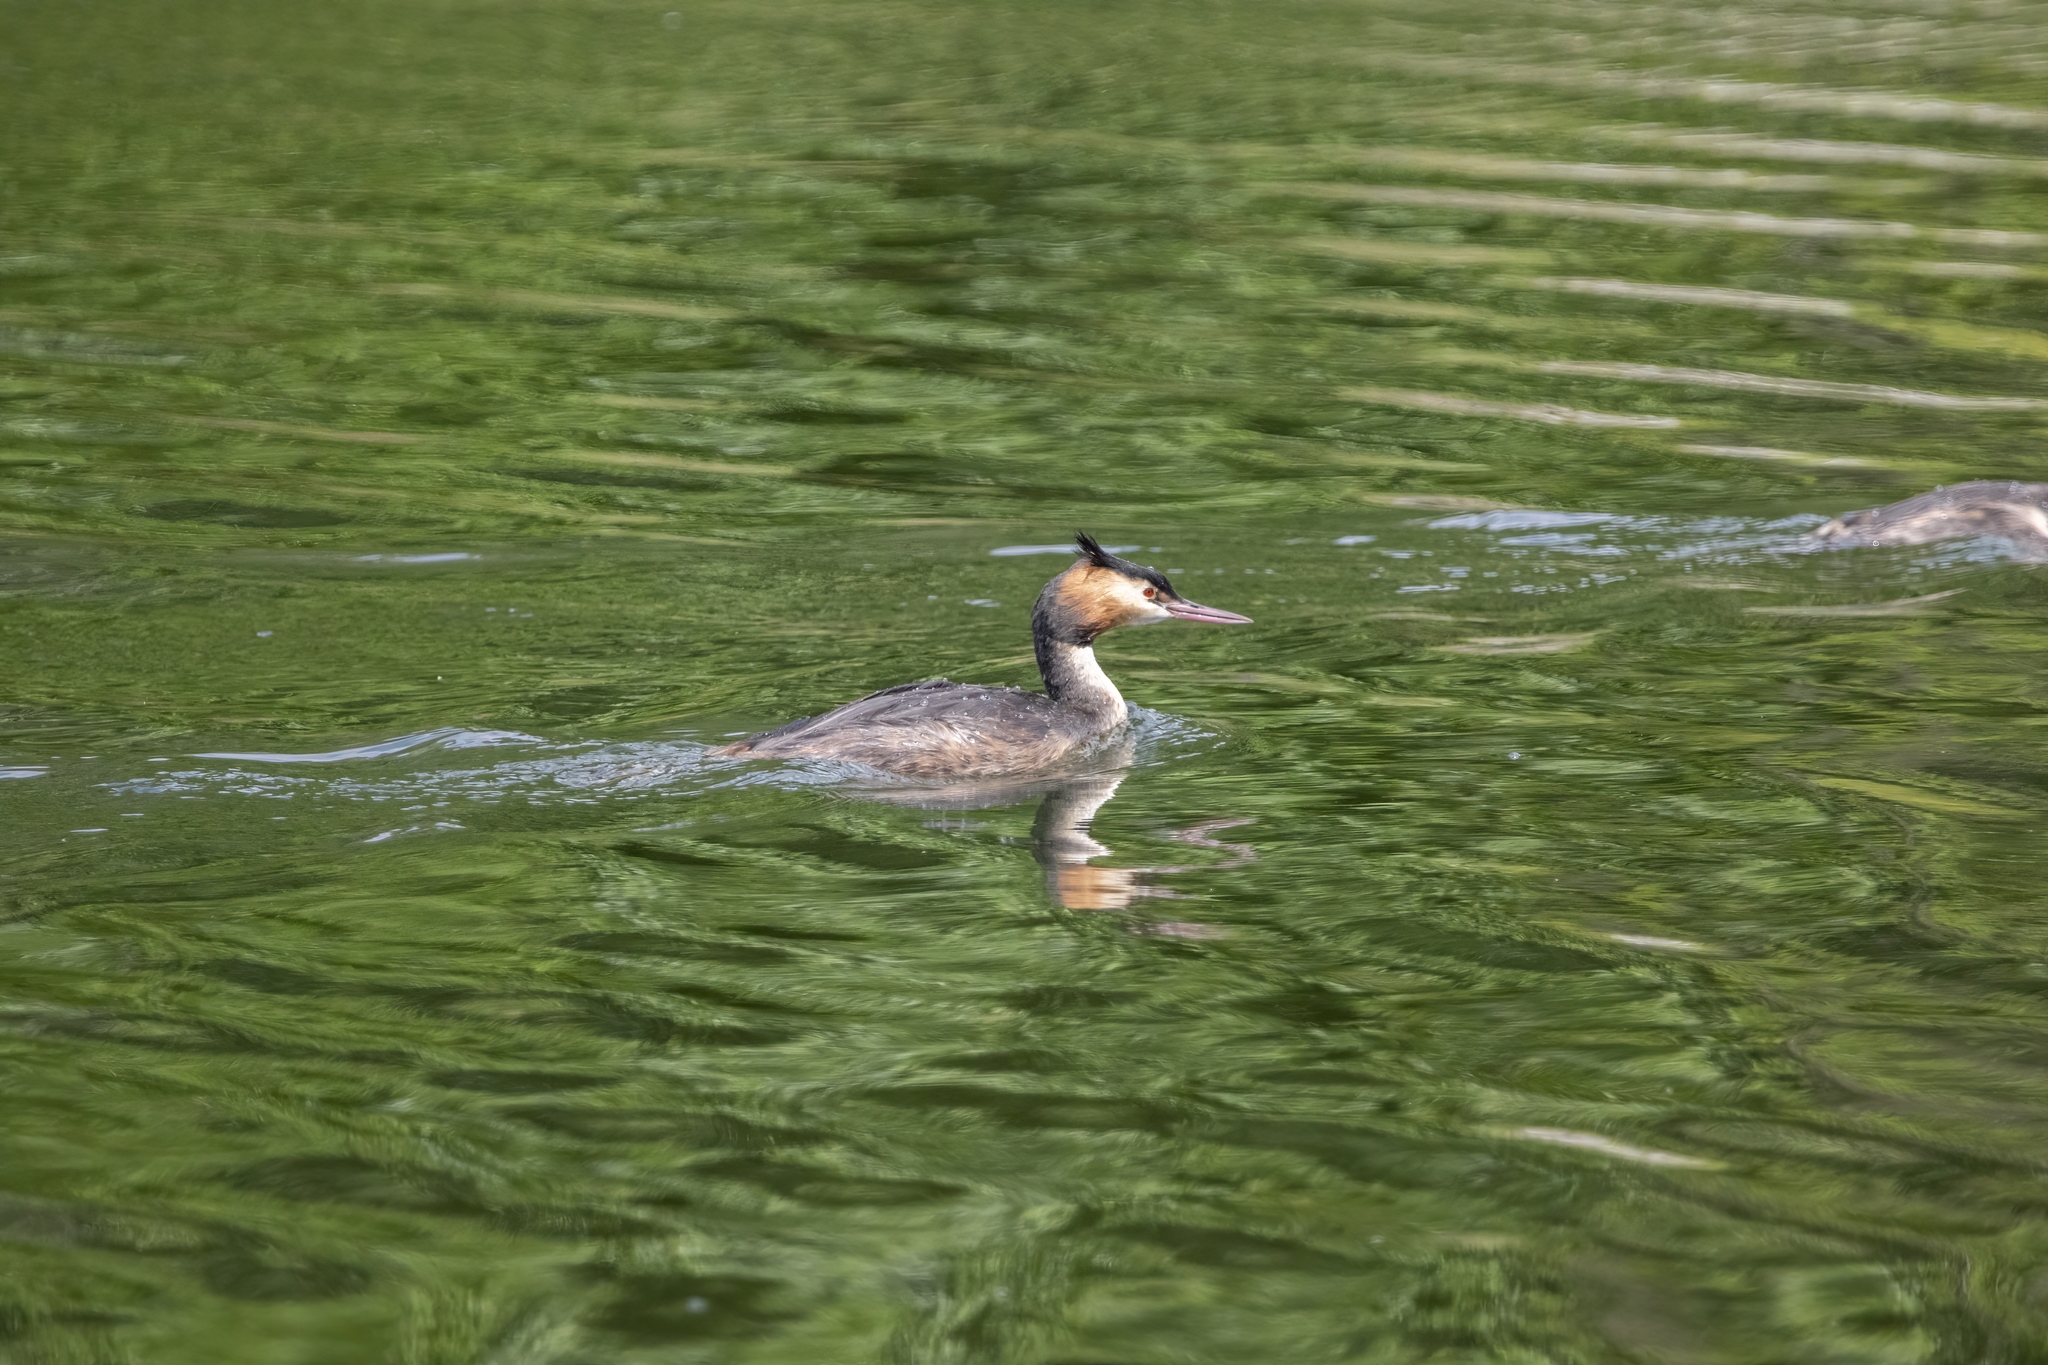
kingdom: Animalia
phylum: Chordata
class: Aves
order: Podicipediformes
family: Podicipedidae
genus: Podiceps
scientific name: Podiceps cristatus
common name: Great crested grebe
